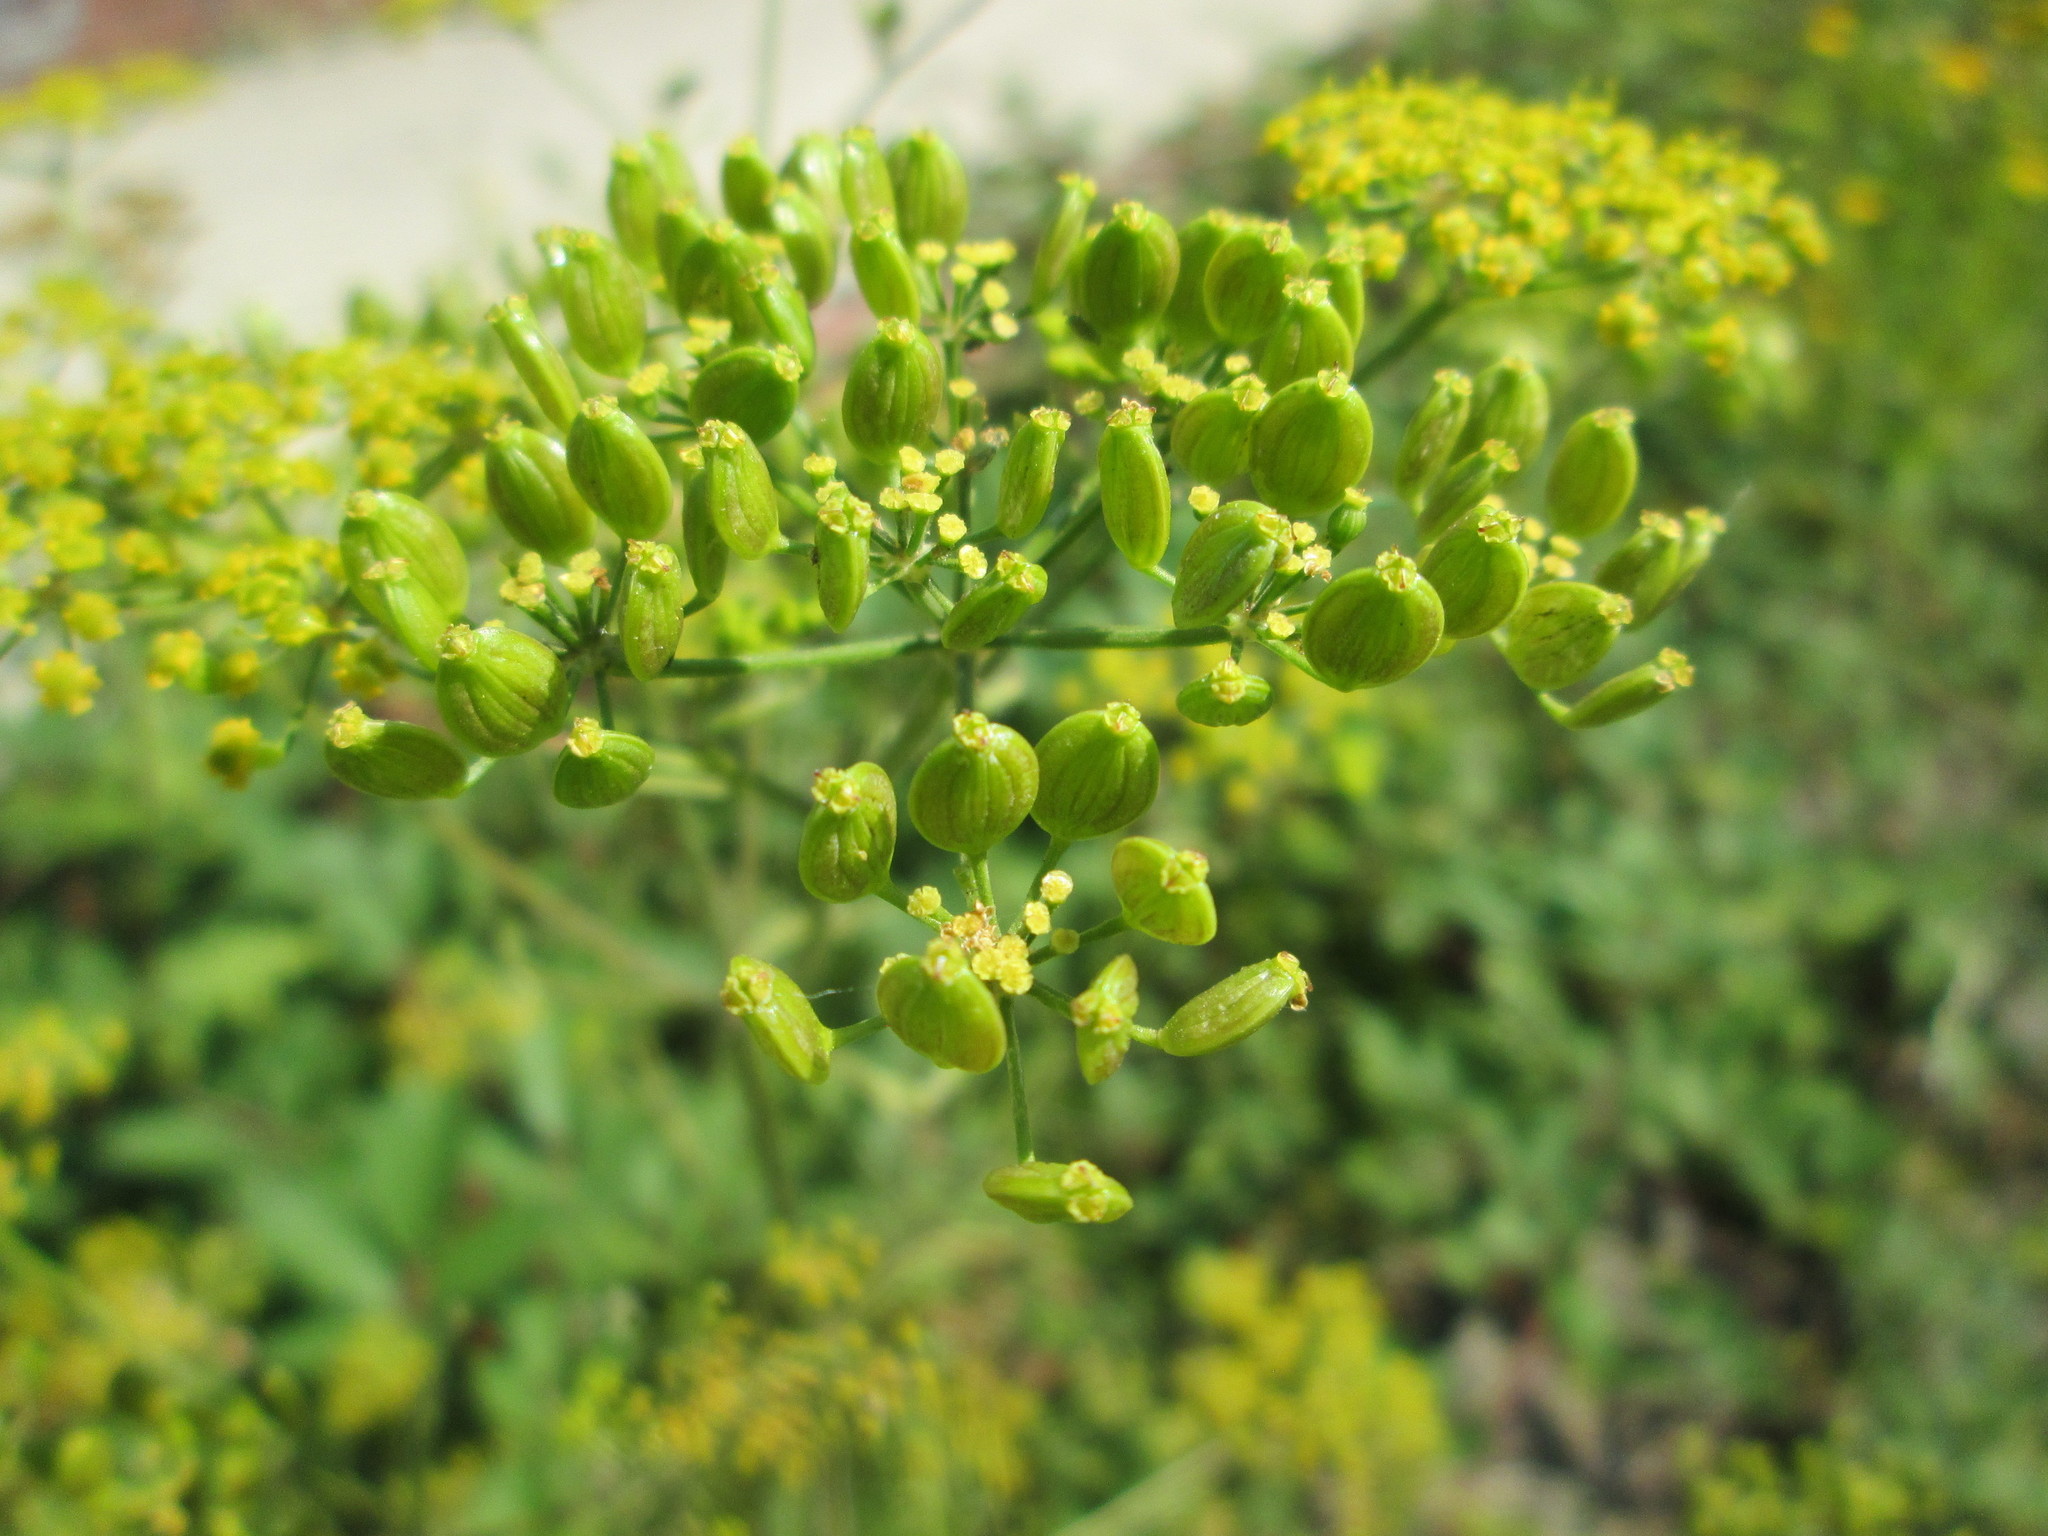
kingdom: Plantae
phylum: Tracheophyta
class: Magnoliopsida
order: Apiales
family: Apiaceae
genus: Pastinaca
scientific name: Pastinaca sativa
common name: Wild parsnip
